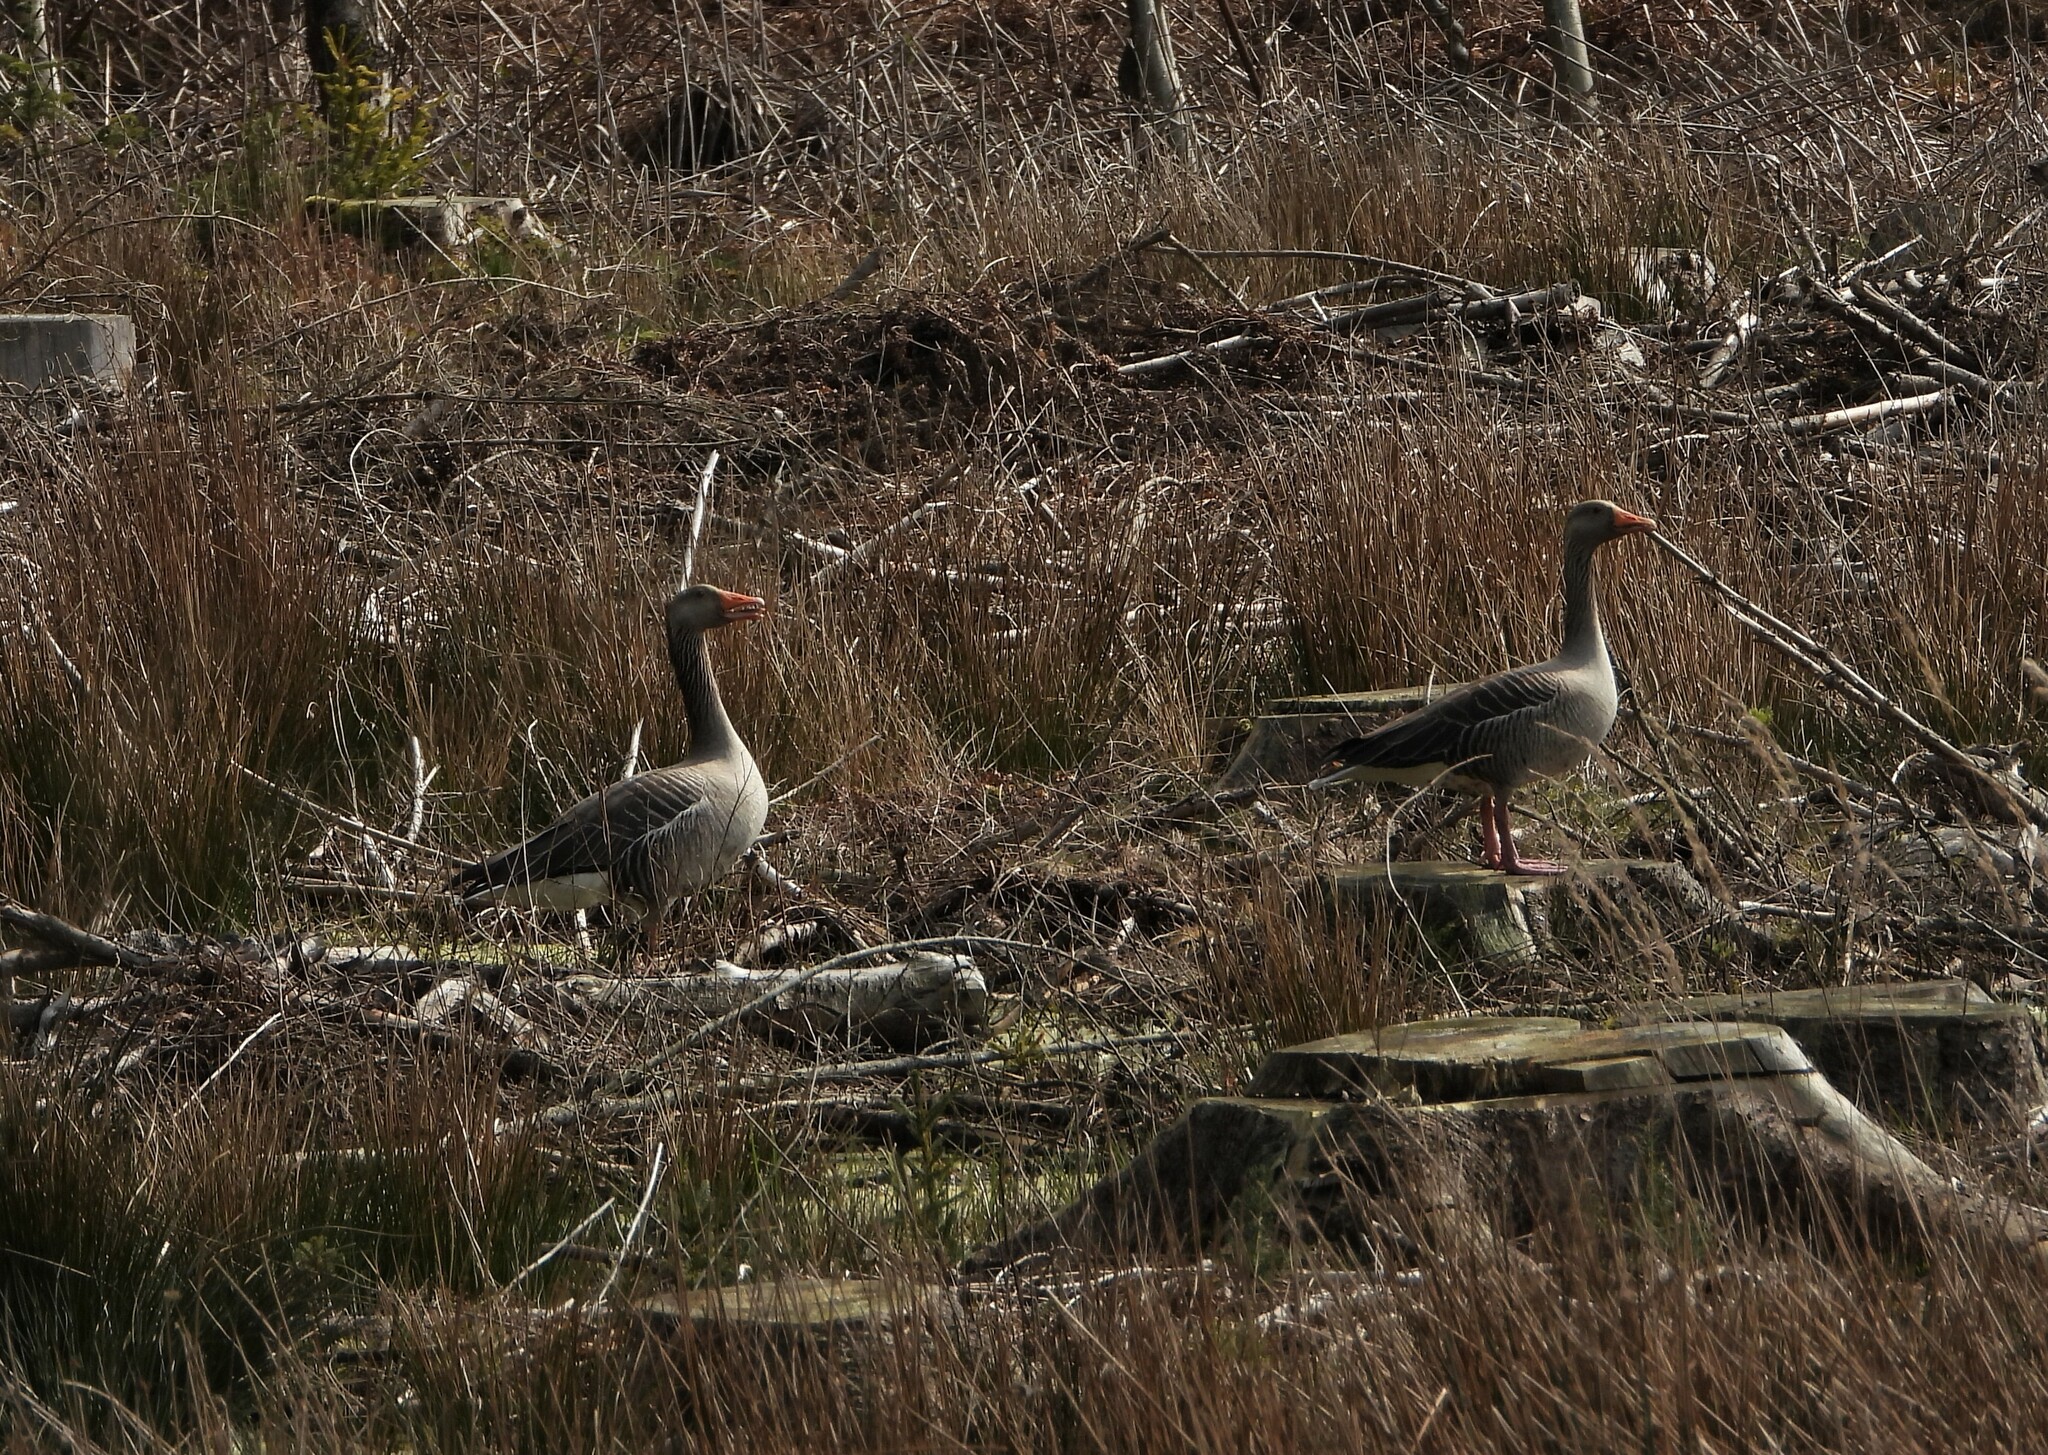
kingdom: Animalia
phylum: Chordata
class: Aves
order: Anseriformes
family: Anatidae
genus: Anser
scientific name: Anser anser
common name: Greylag goose
